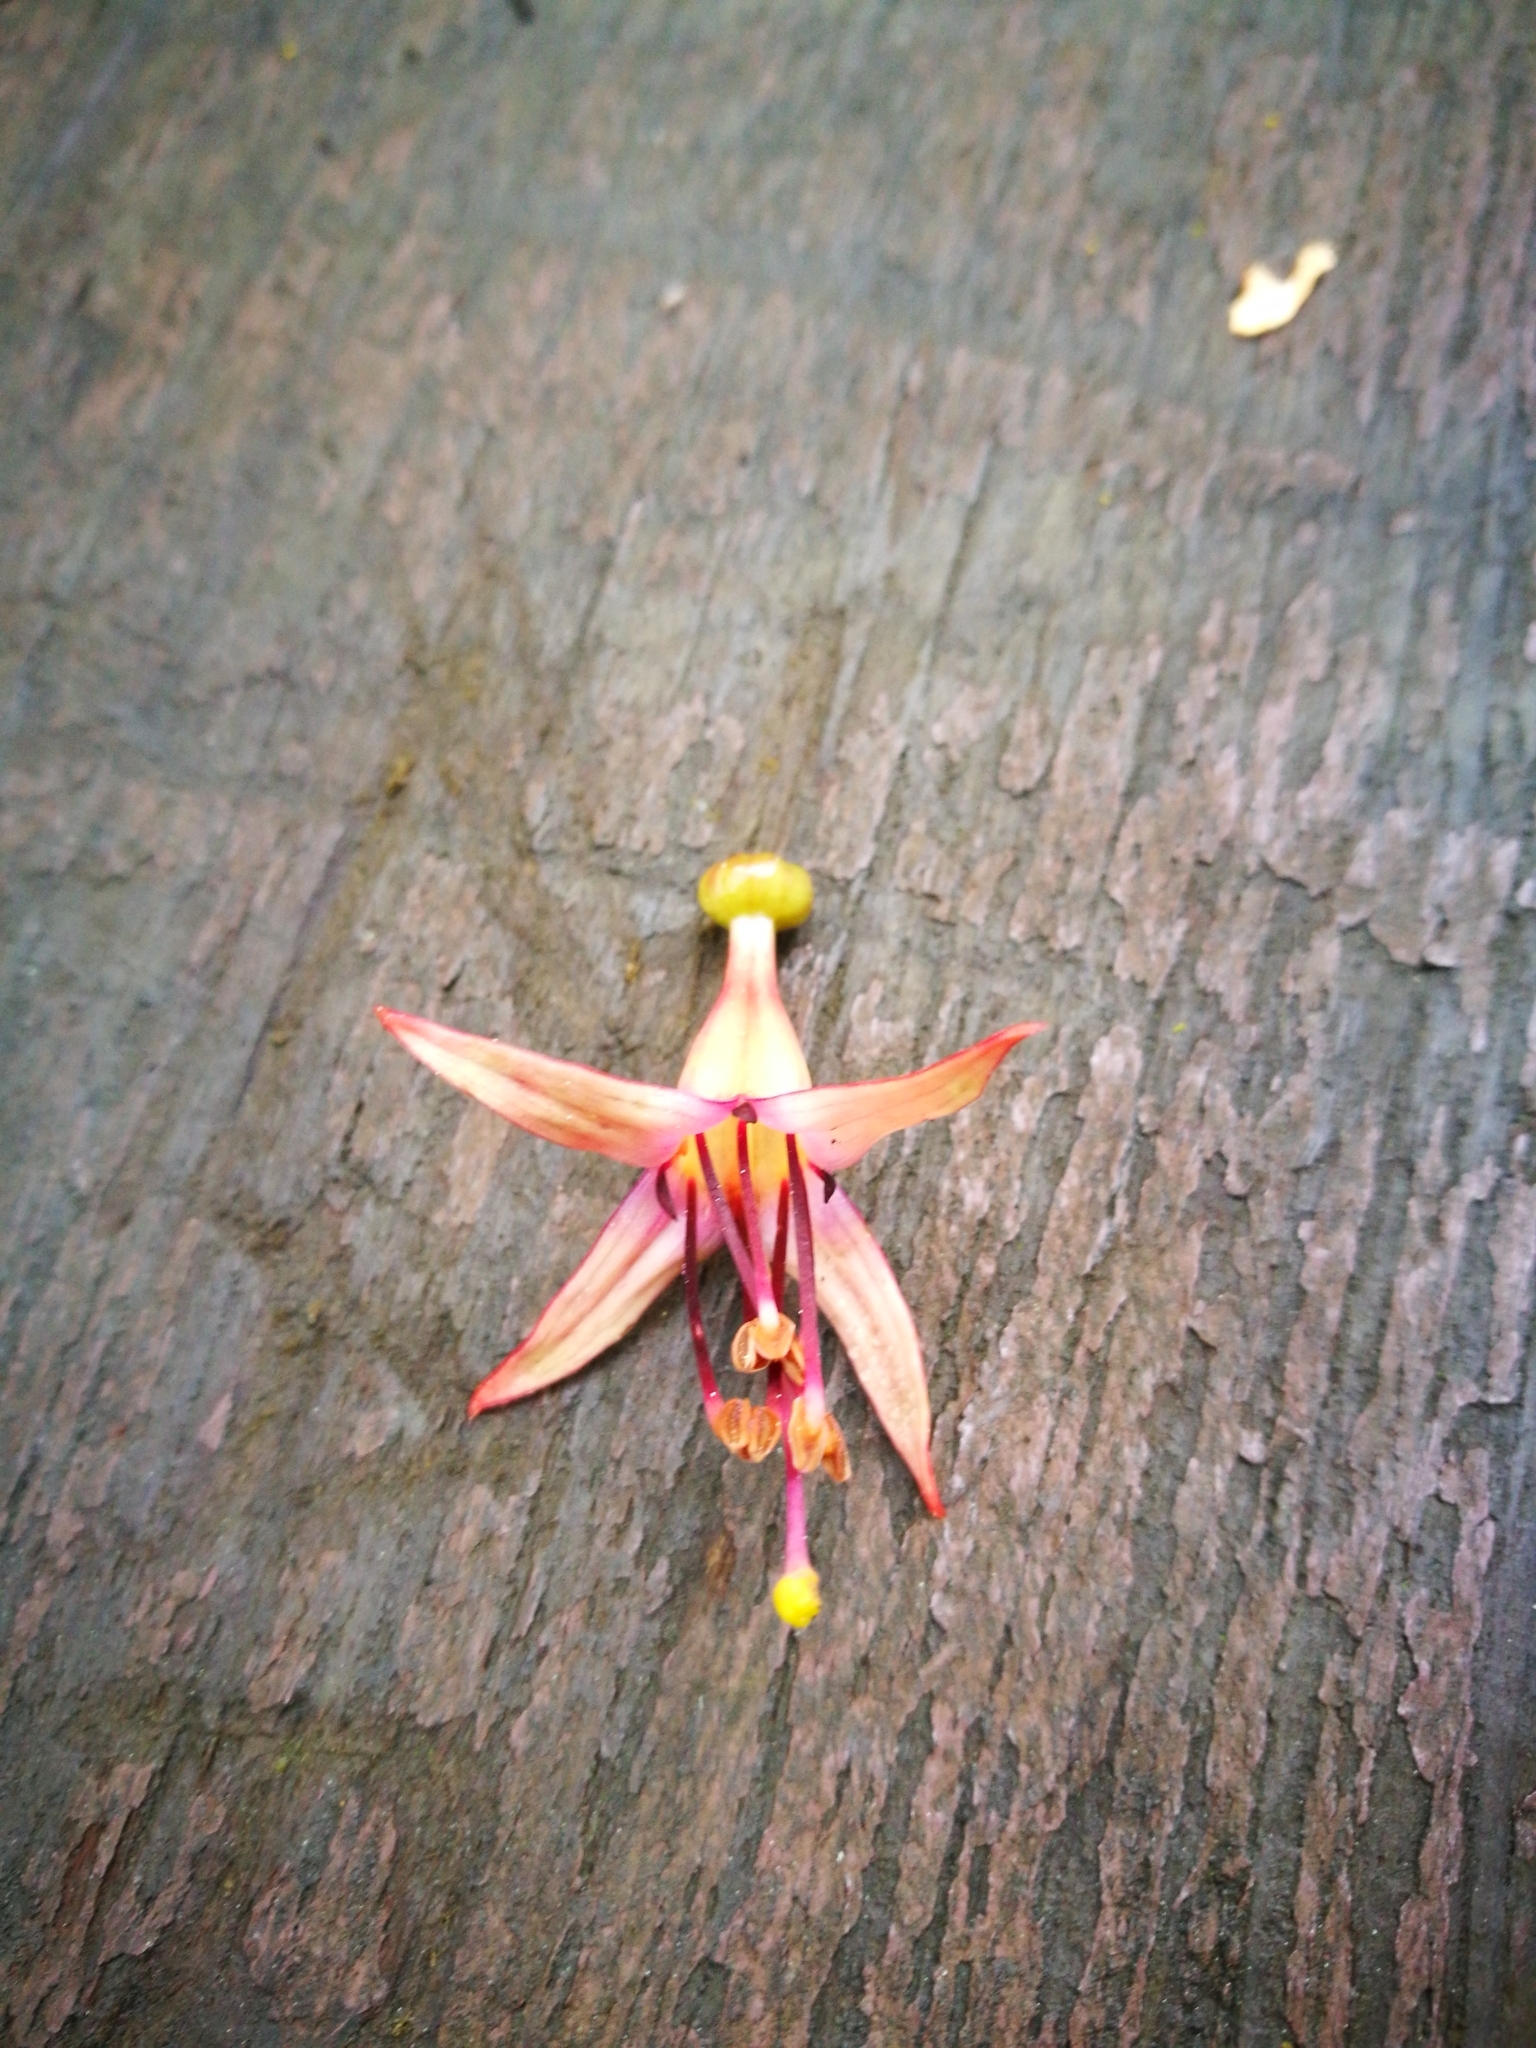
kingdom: Plantae
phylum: Tracheophyta
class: Magnoliopsida
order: Myrtales
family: Onagraceae
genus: Fuchsia
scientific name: Fuchsia excorticata
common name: Tree fuchsia
